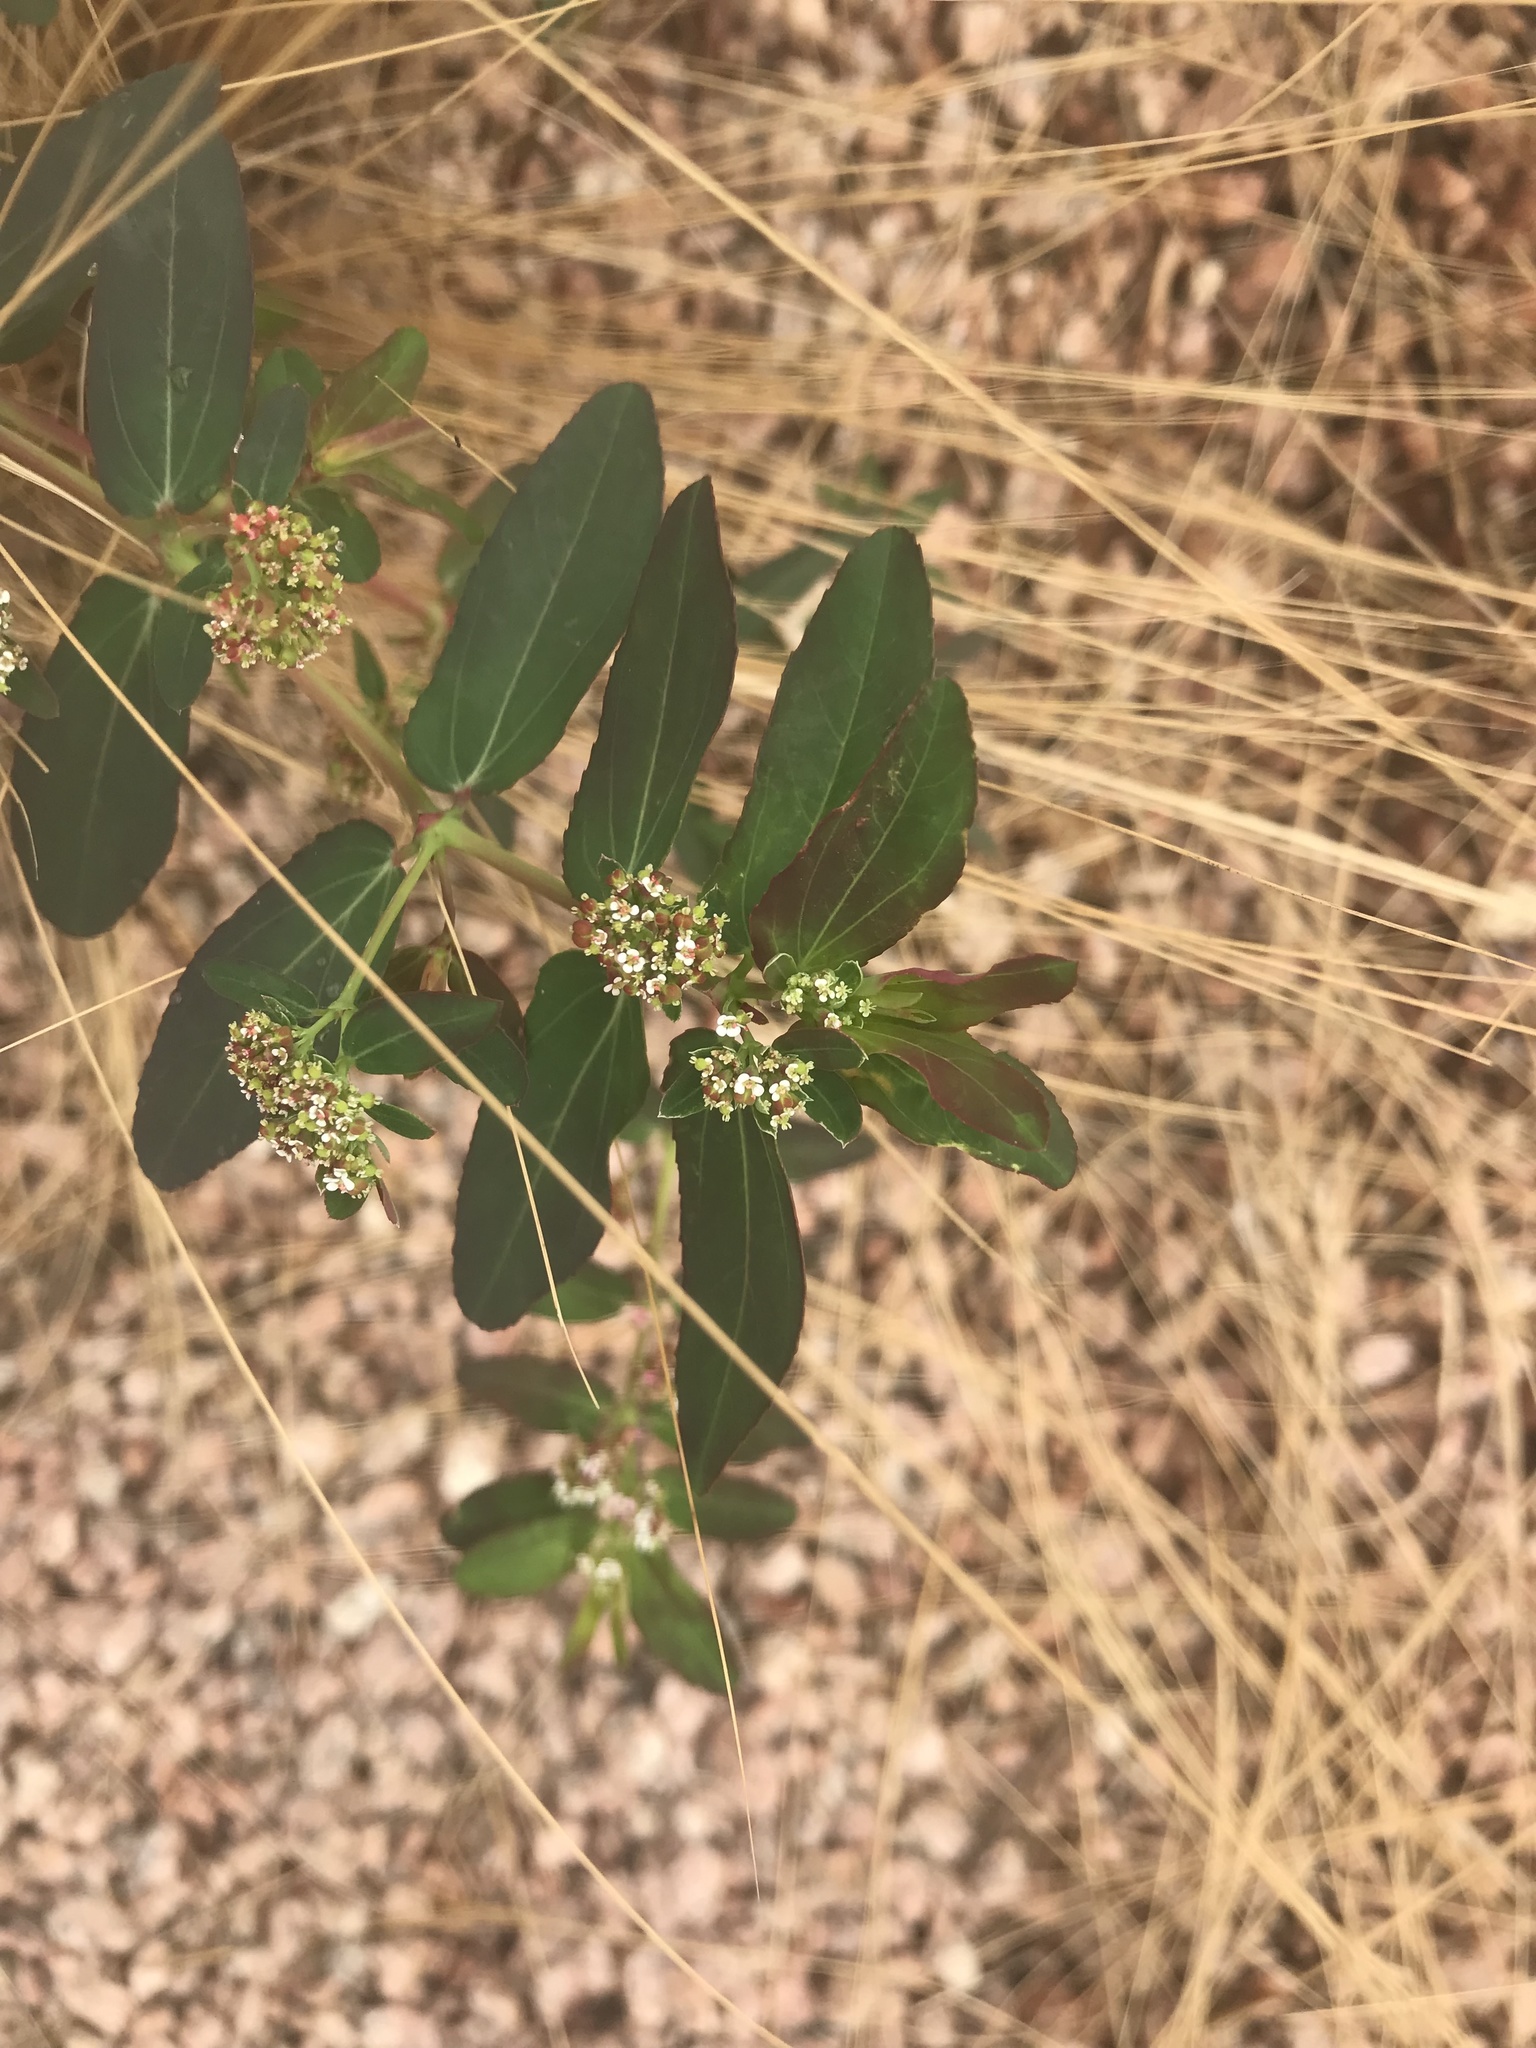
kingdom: Plantae
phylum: Tracheophyta
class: Magnoliopsida
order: Malpighiales
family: Euphorbiaceae
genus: Euphorbia
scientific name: Euphorbia hypericifolia
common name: Graceful sandmat
